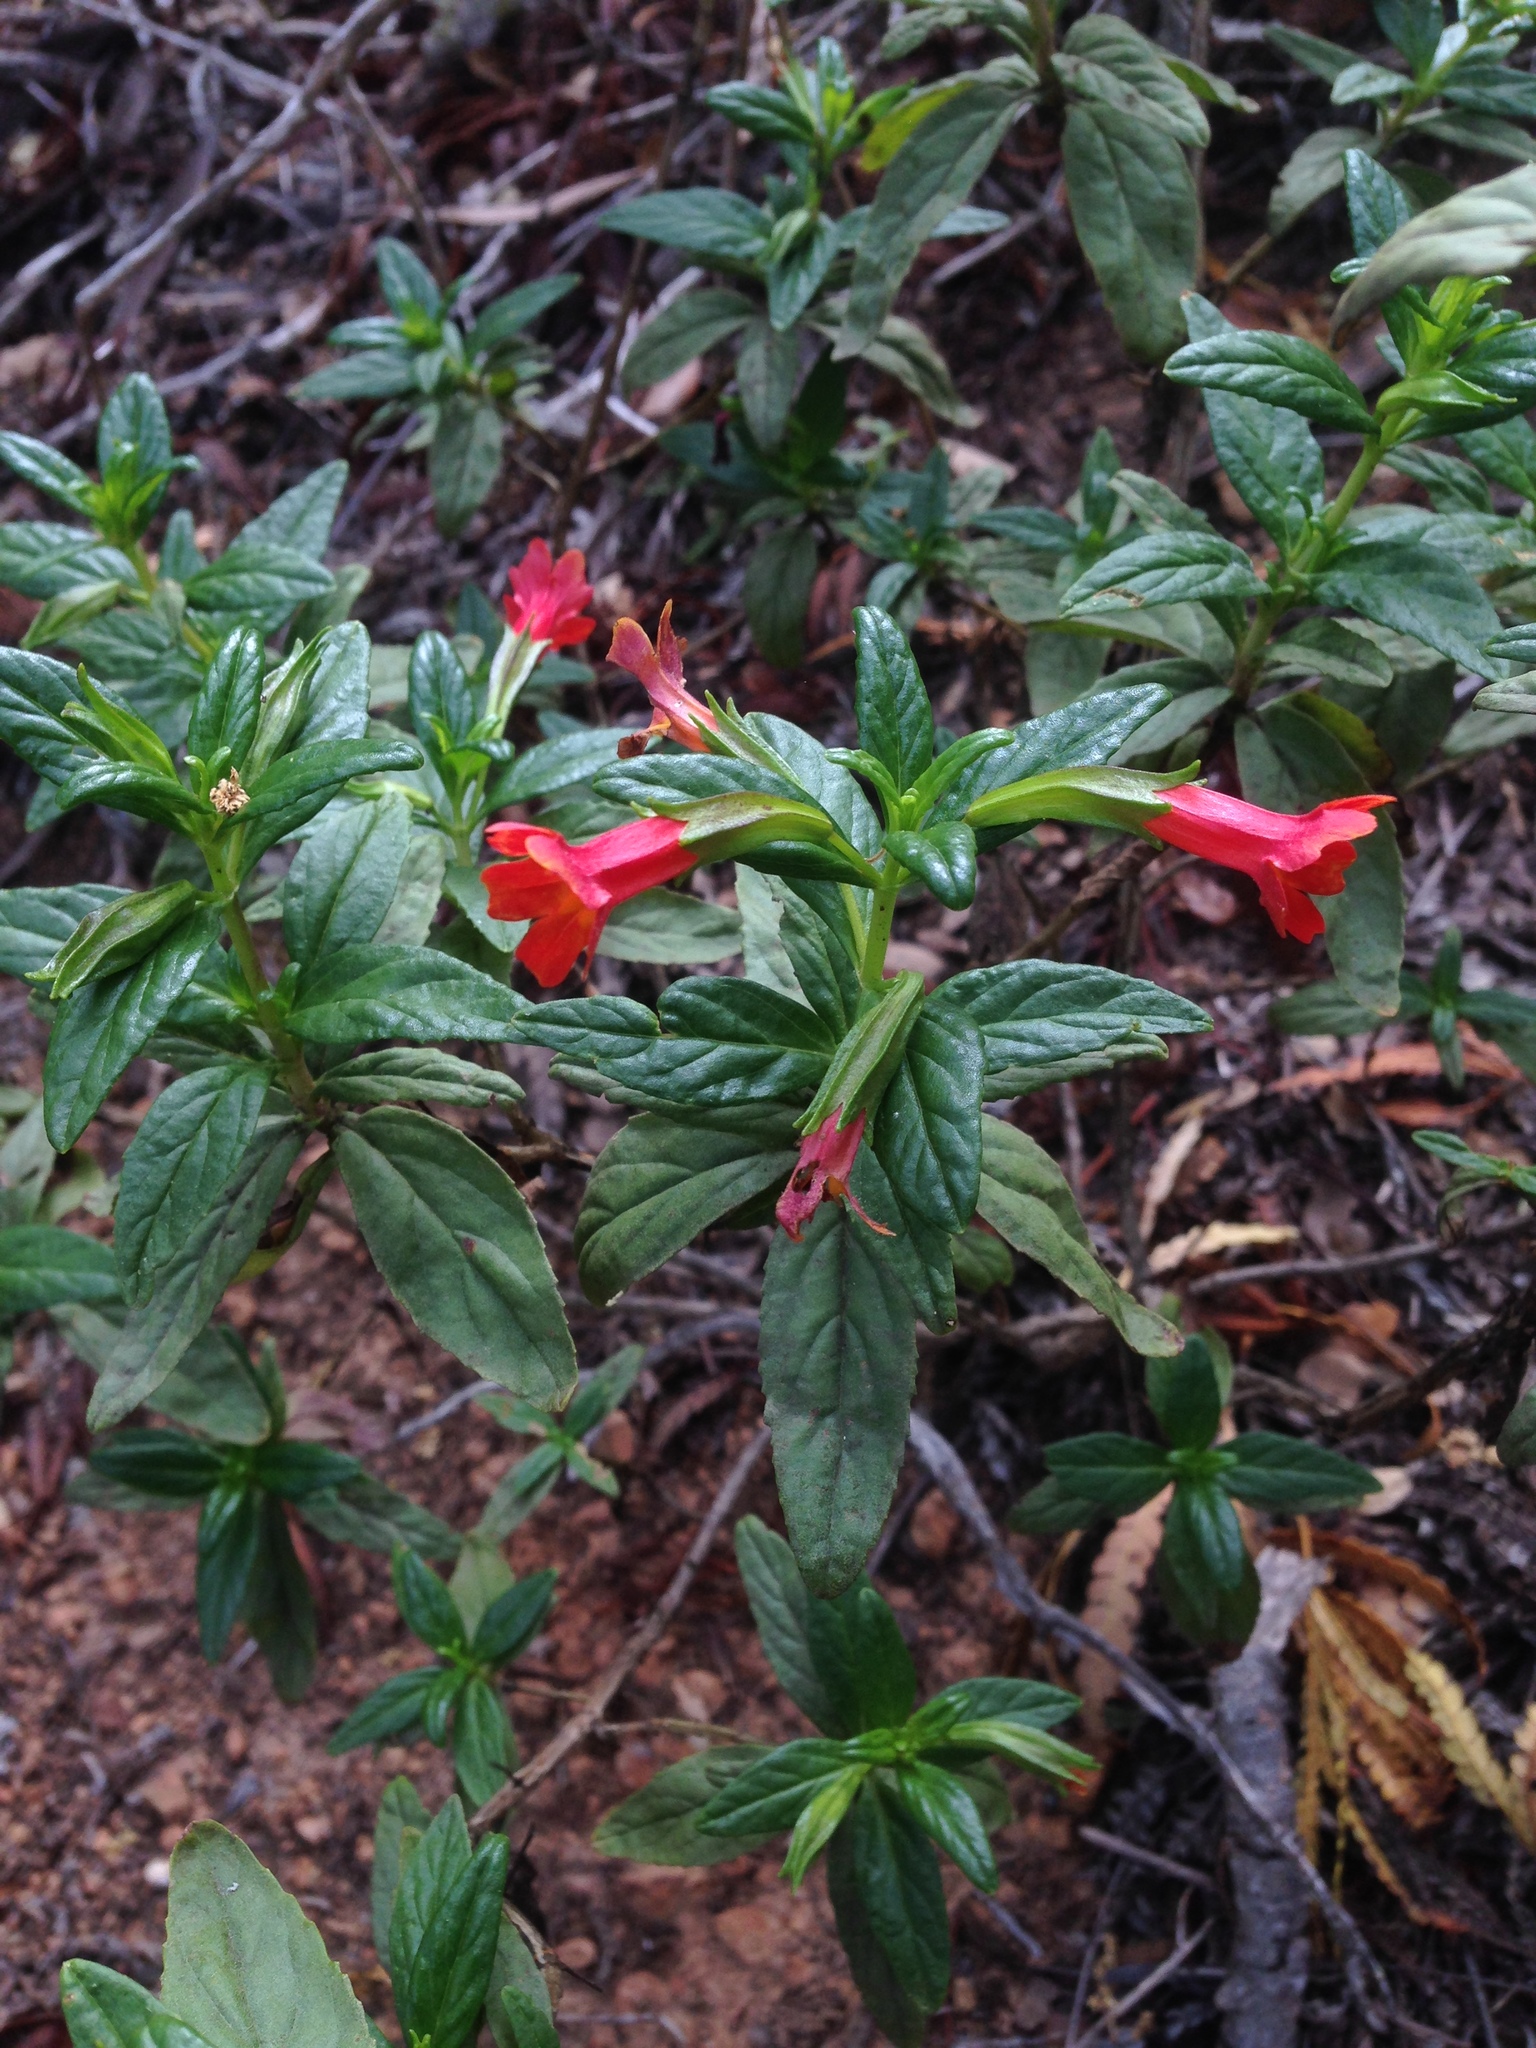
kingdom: Plantae
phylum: Tracheophyta
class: Magnoliopsida
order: Lamiales
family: Phrymaceae
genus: Diplacus
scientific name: Diplacus parviflorus
